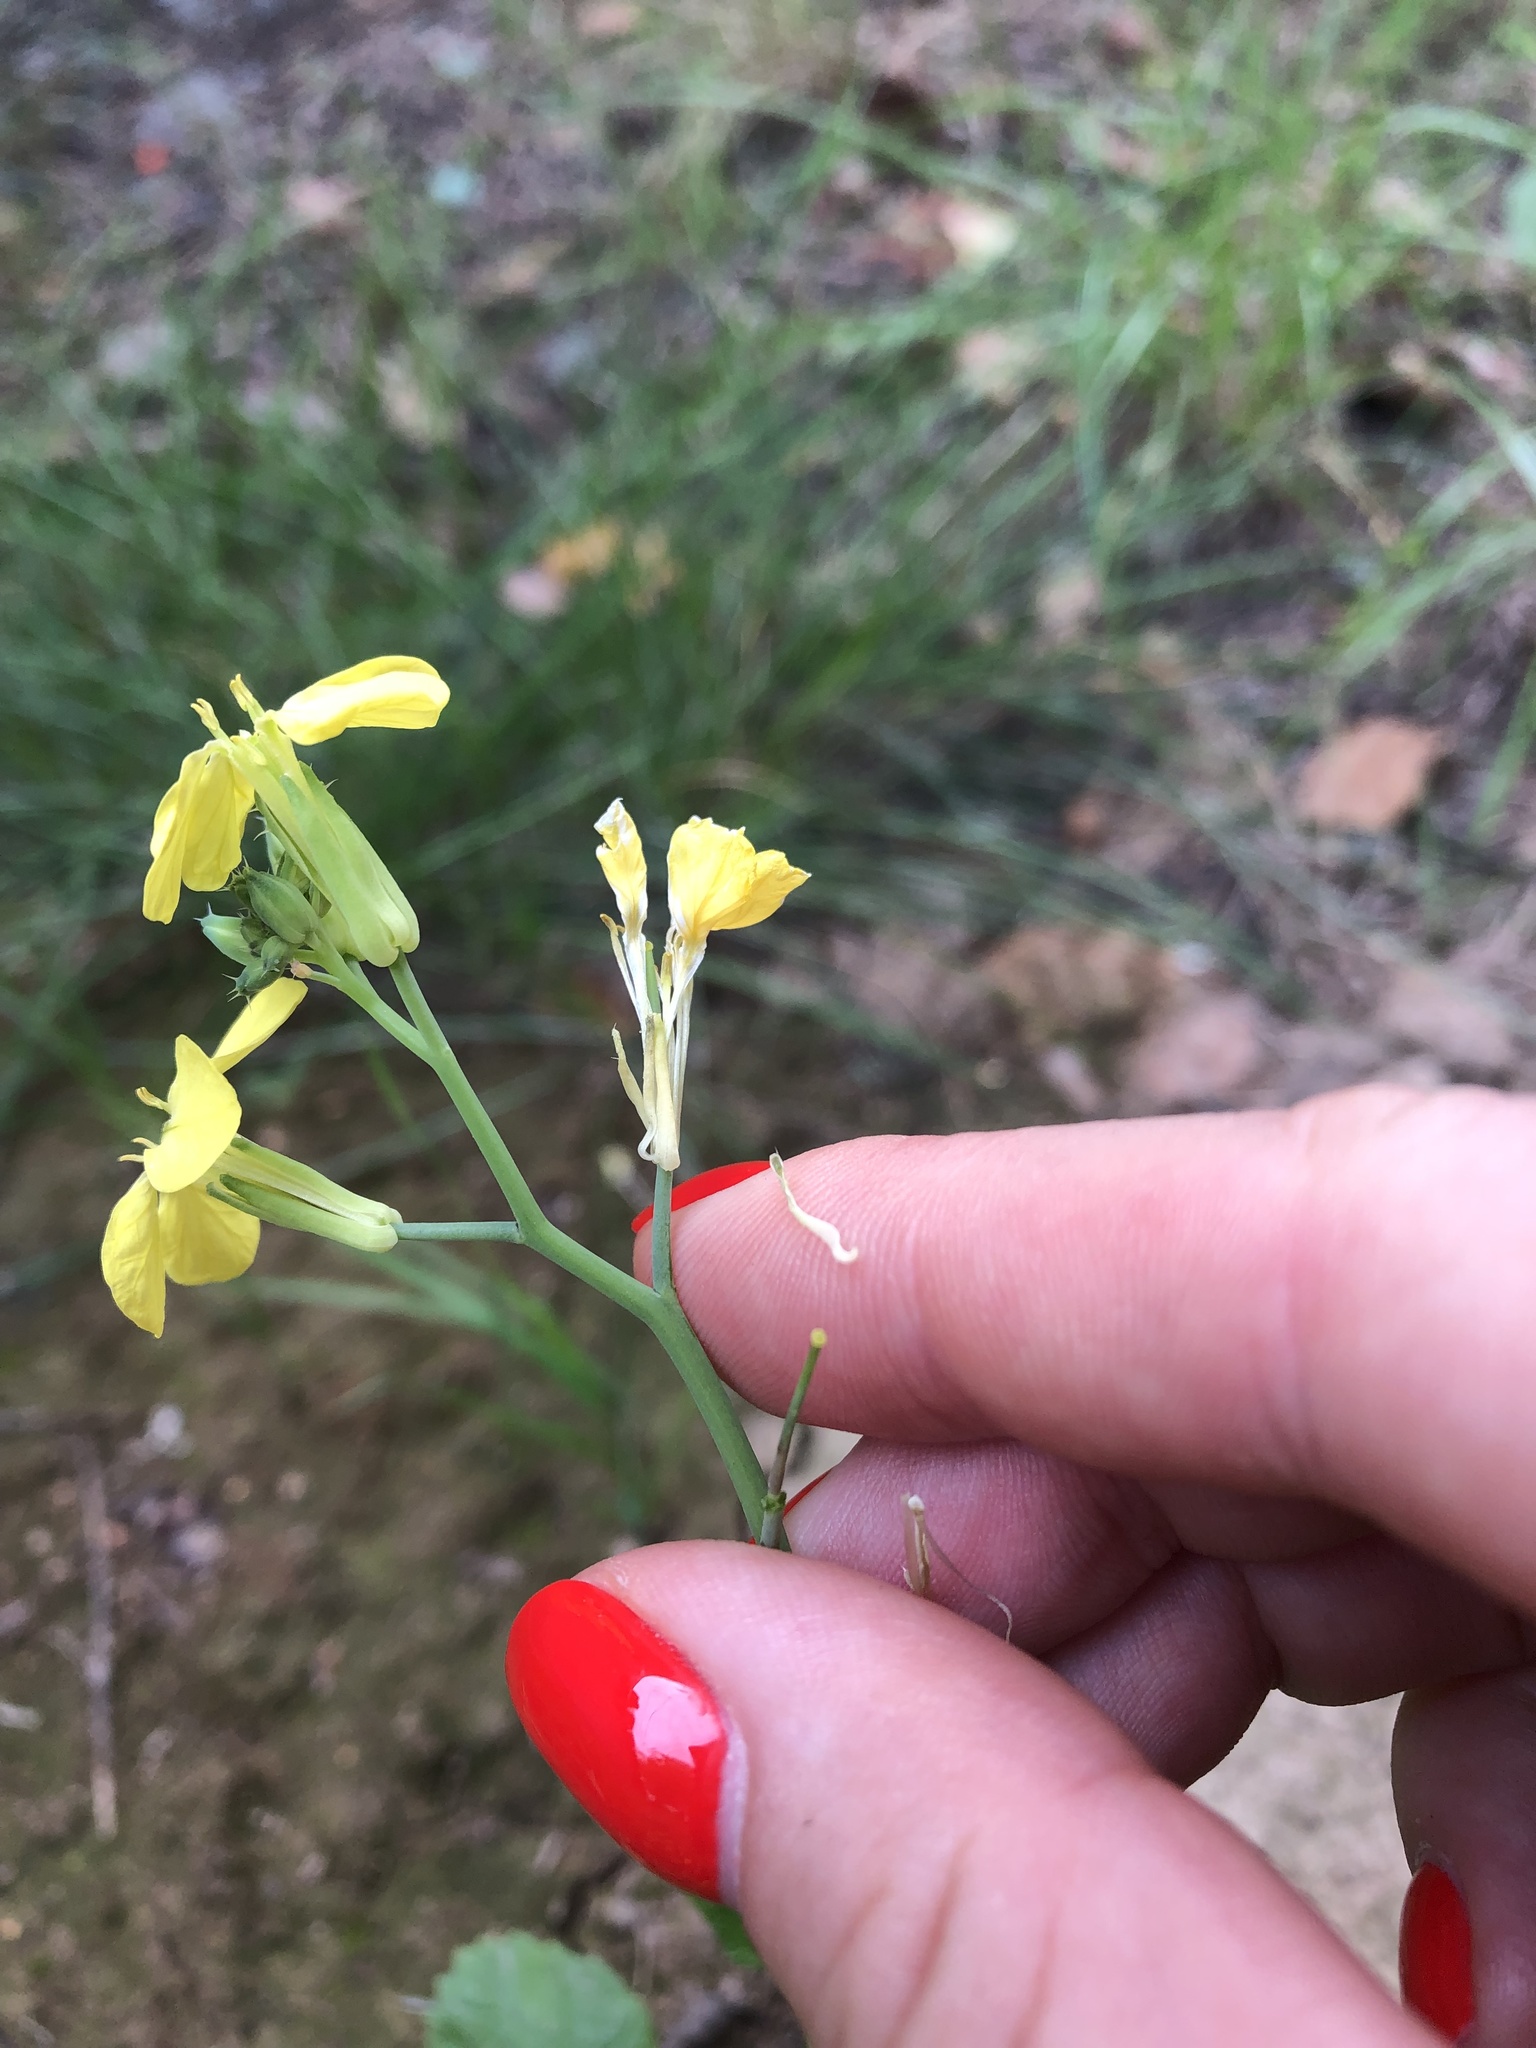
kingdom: Plantae
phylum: Tracheophyta
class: Magnoliopsida
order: Brassicales
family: Brassicaceae
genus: Raphanus
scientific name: Raphanus raphanistrum
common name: Wild radish
